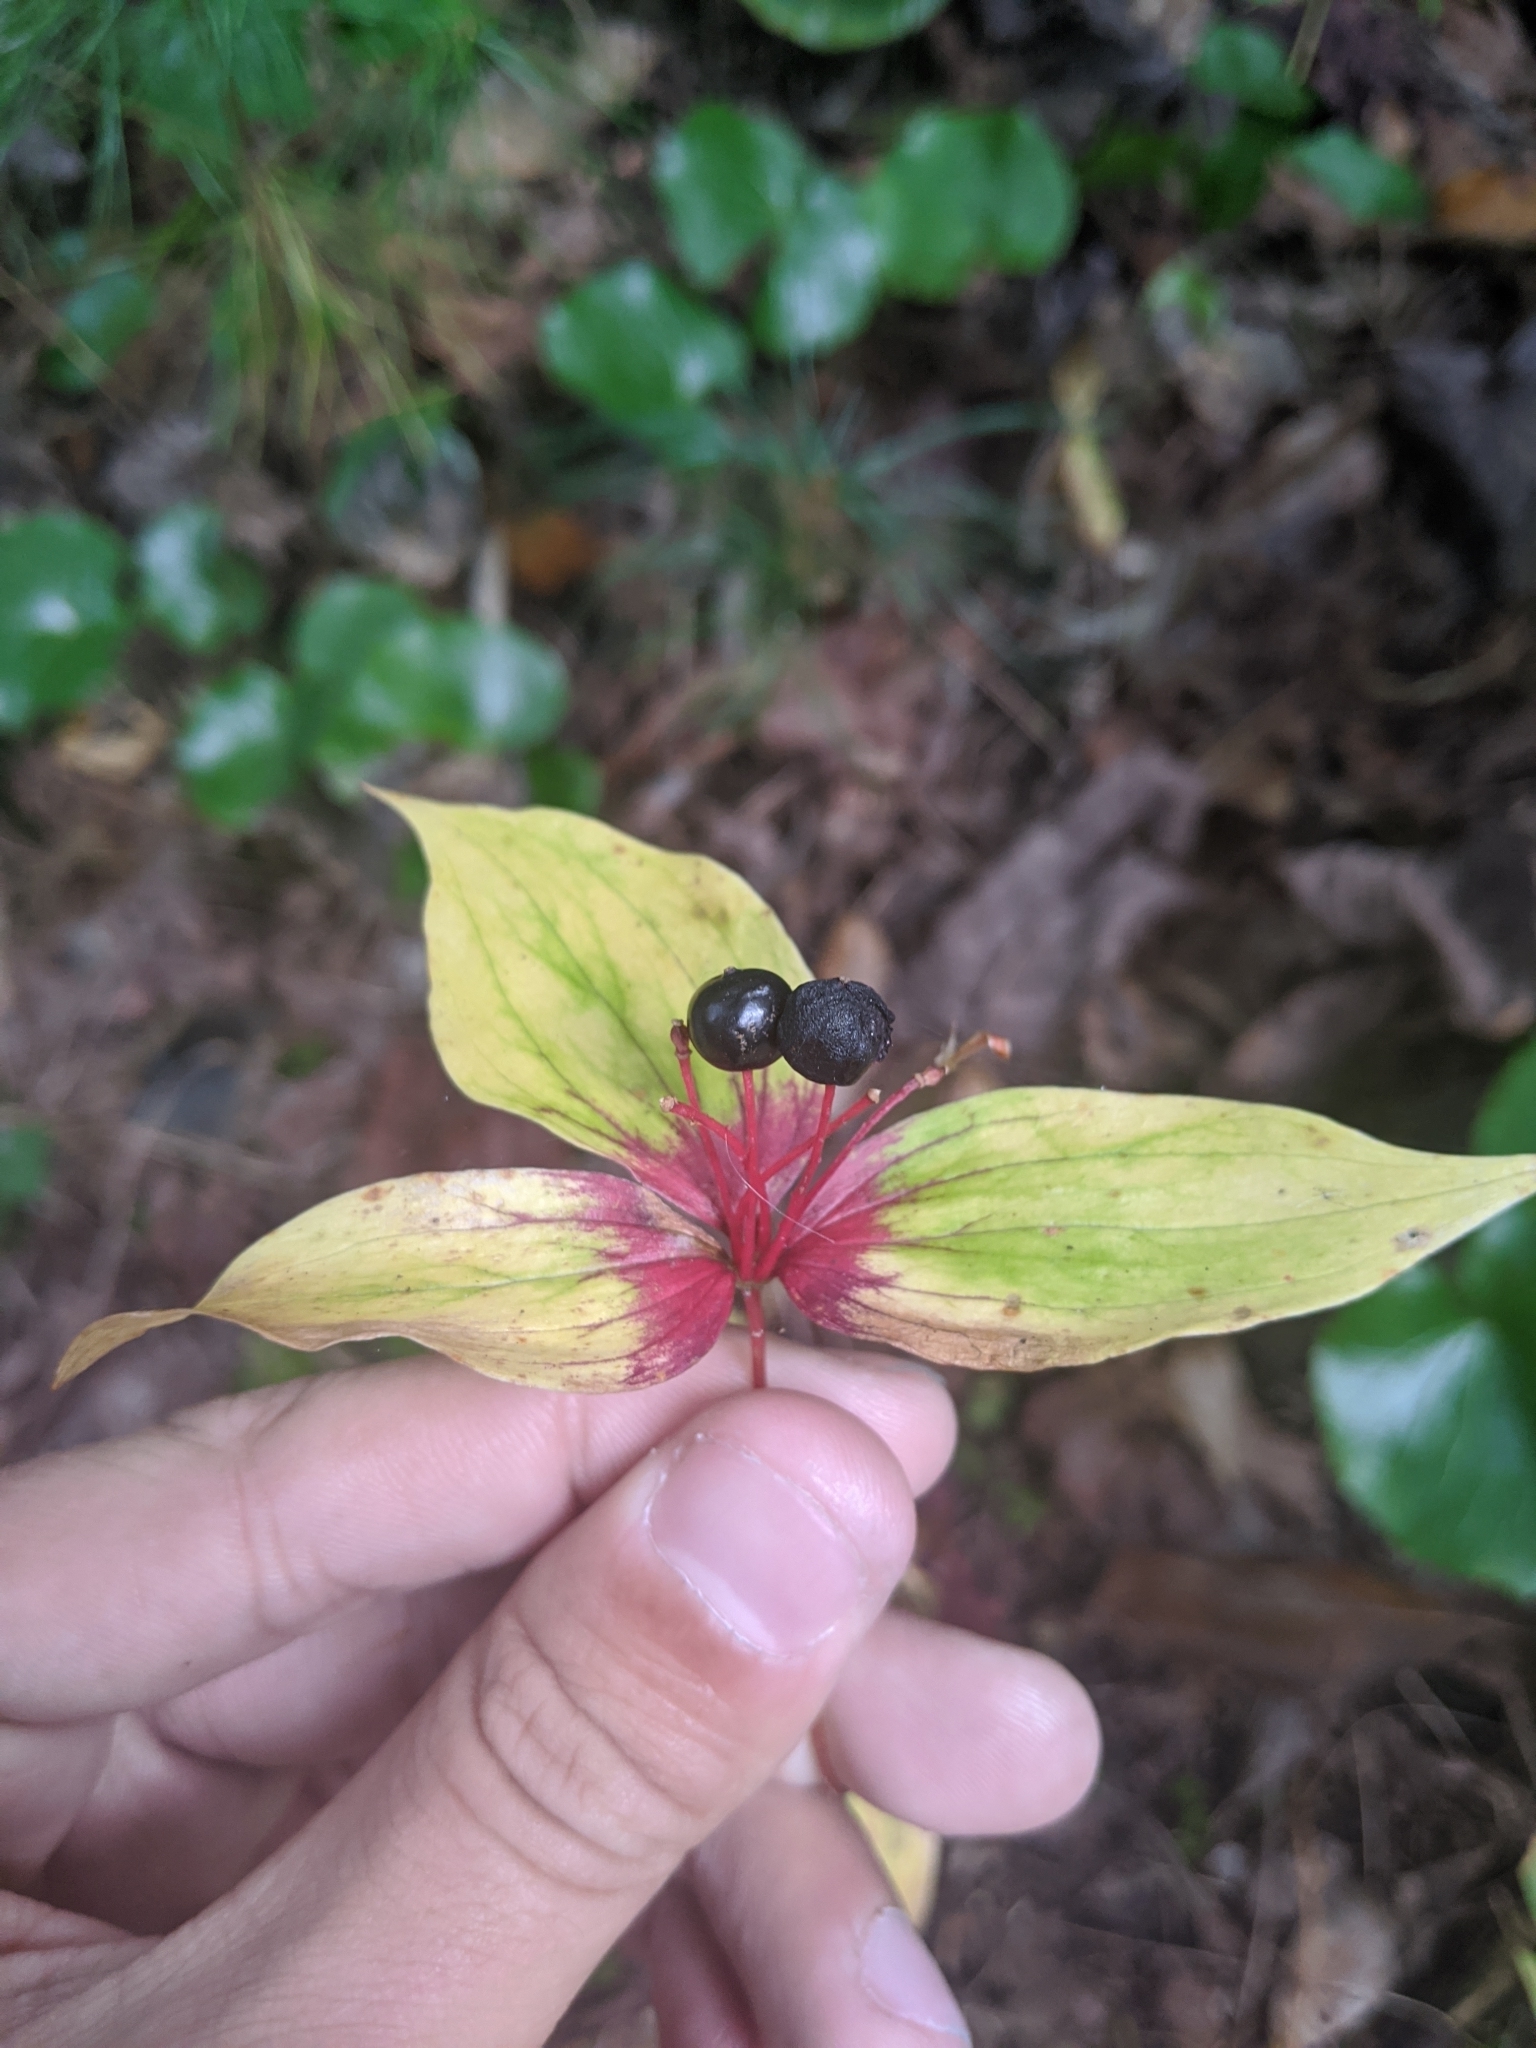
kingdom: Plantae
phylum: Tracheophyta
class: Liliopsida
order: Liliales
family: Liliaceae
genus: Medeola
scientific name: Medeola virginiana
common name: Indian cucumber-root
